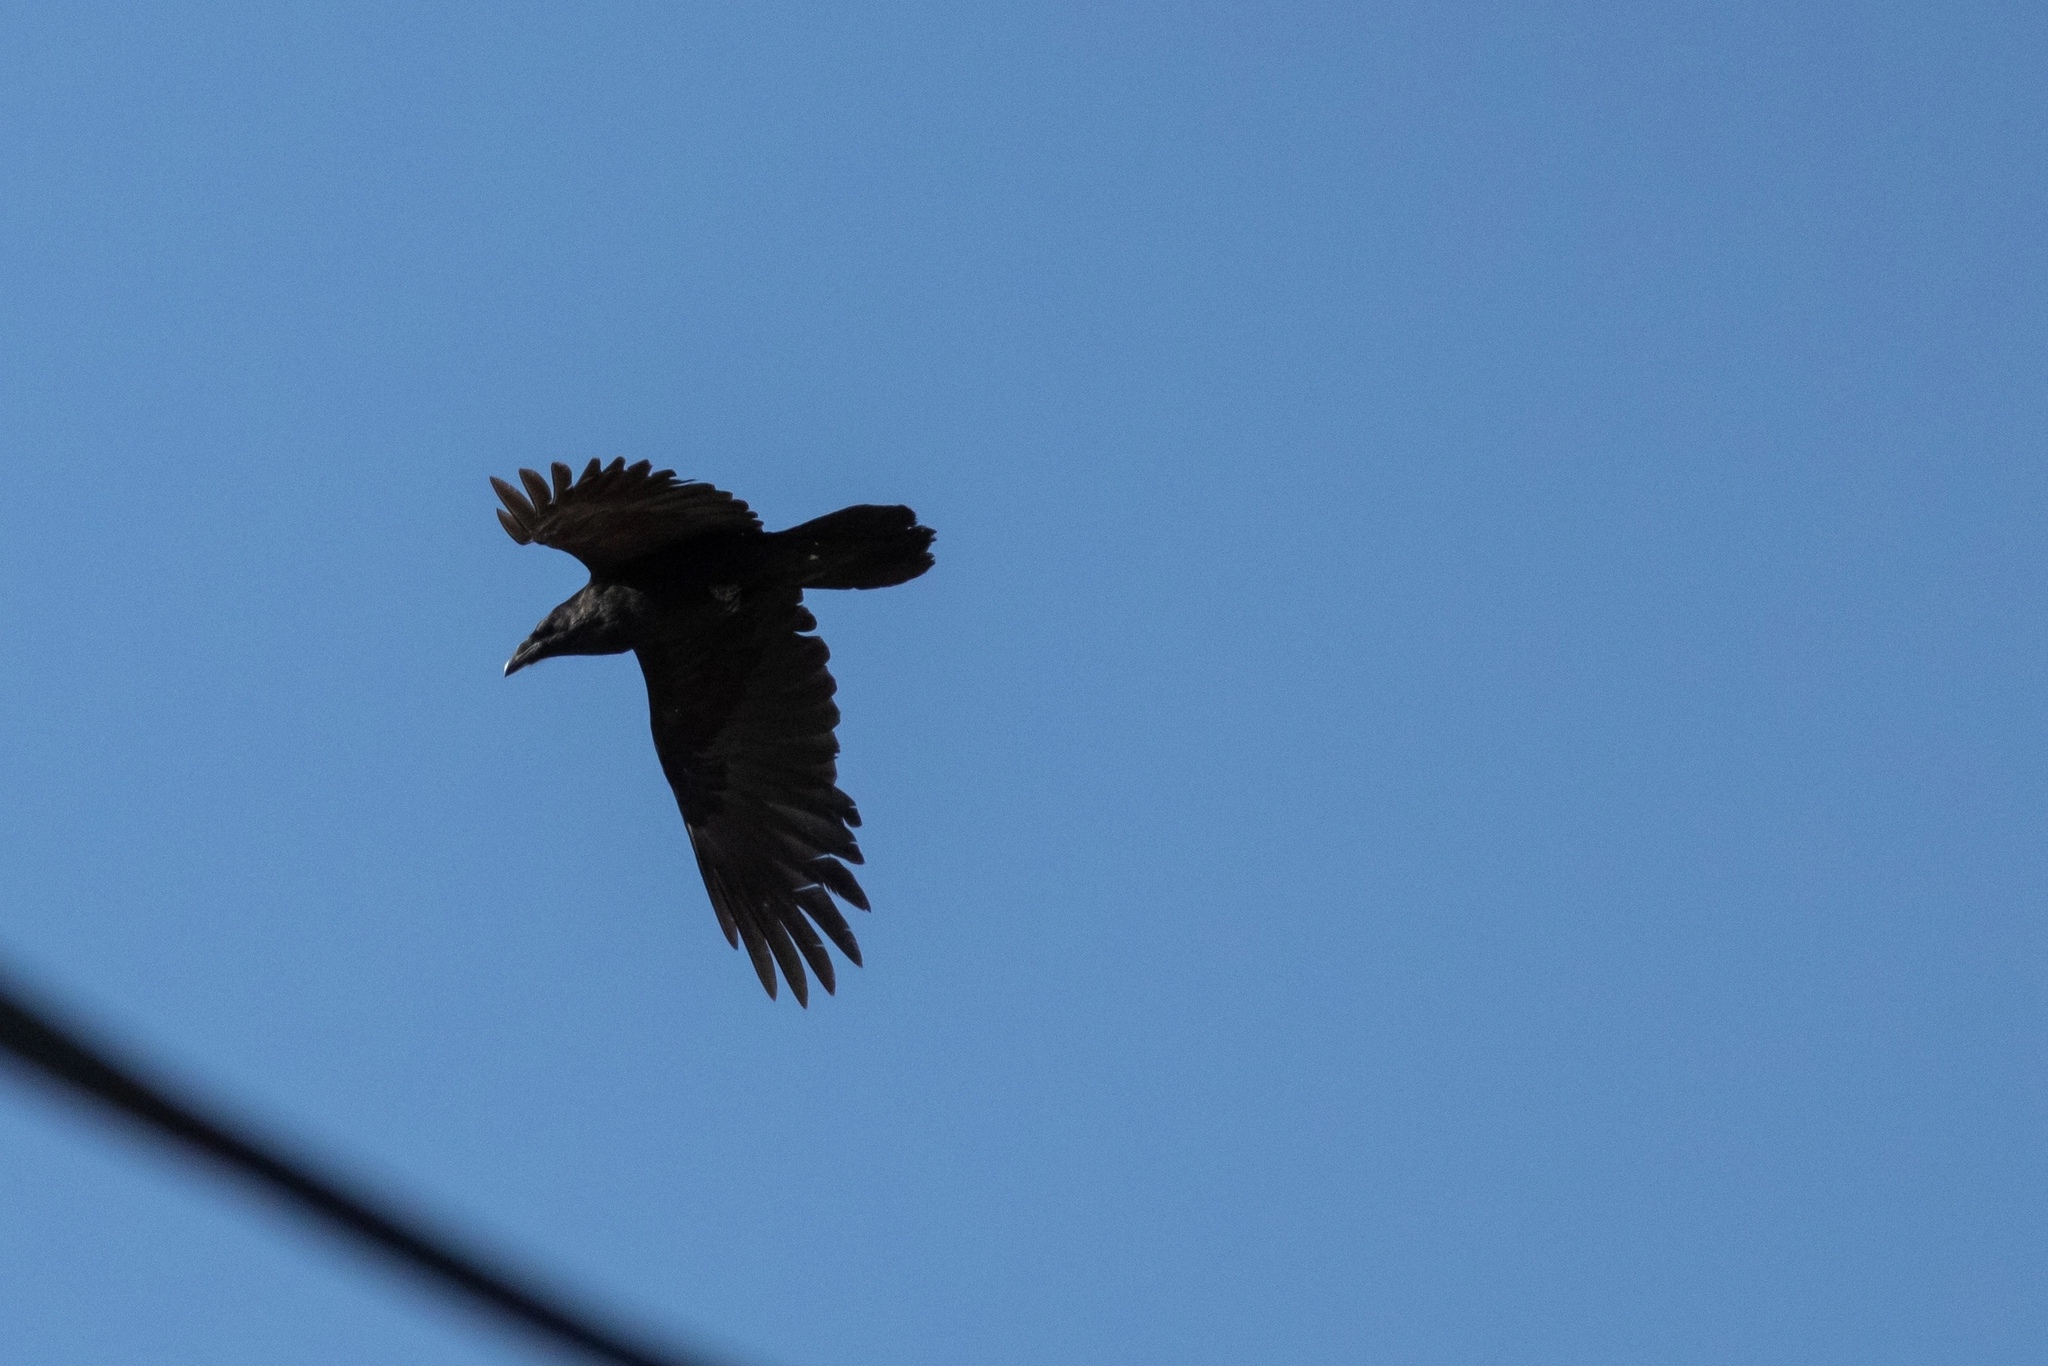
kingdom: Animalia
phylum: Chordata
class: Aves
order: Passeriformes
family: Corvidae
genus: Corvus
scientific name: Corvus corax
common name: Common raven
